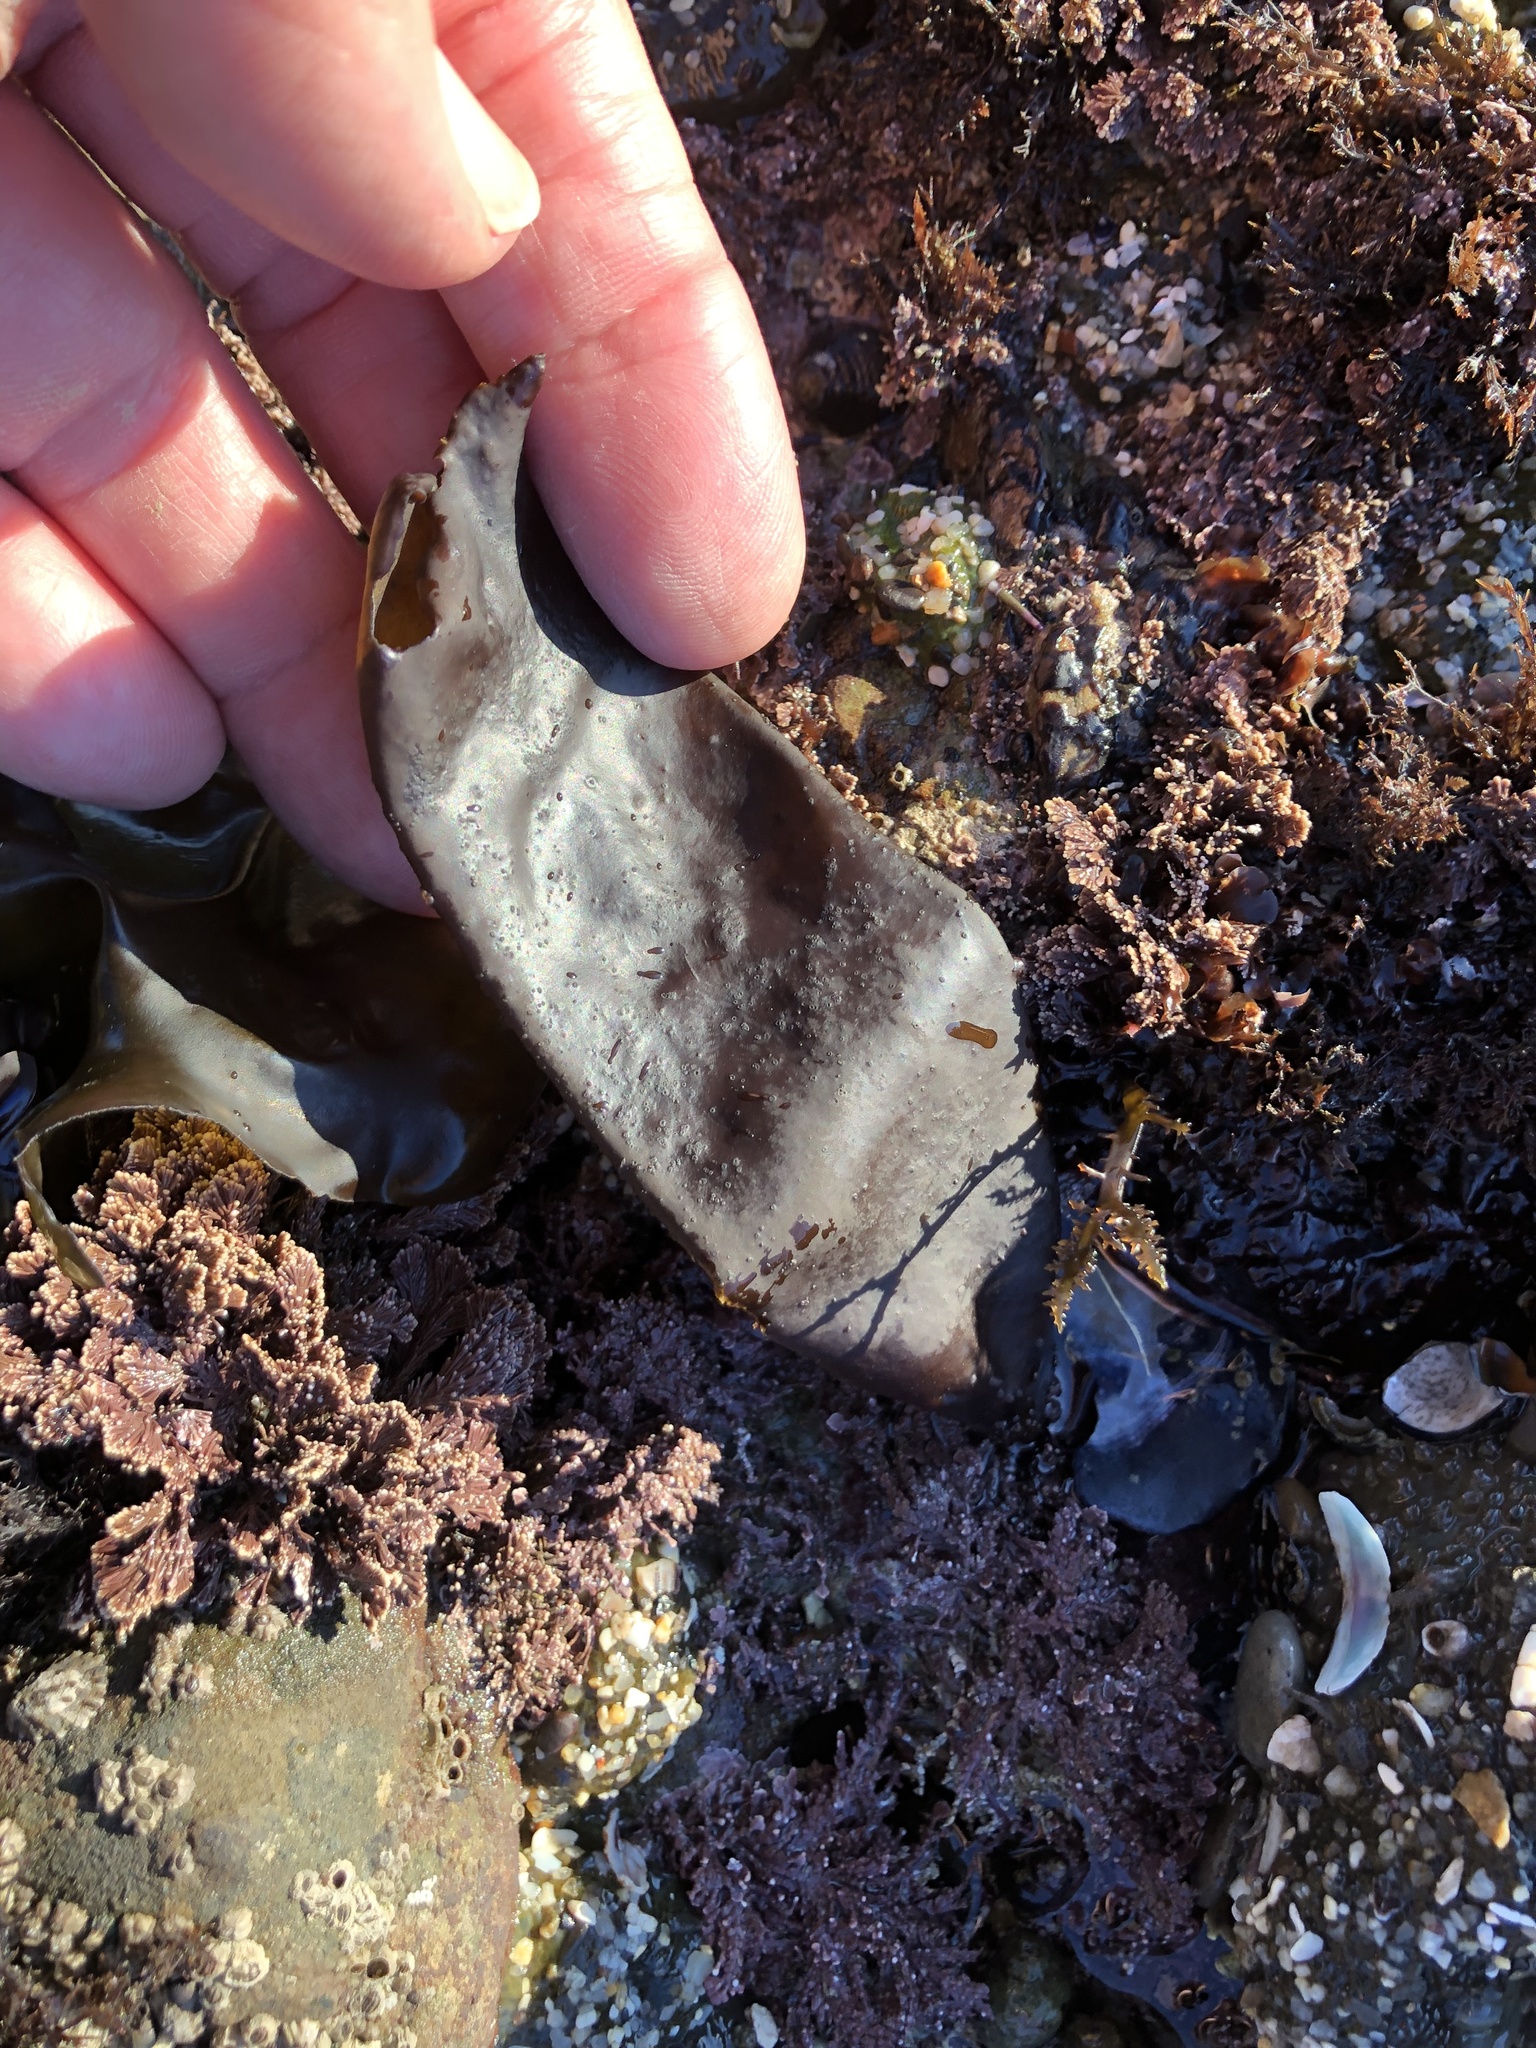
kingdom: Plantae
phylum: Rhodophyta
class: Florideophyceae
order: Palmariales
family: Palmariaceae
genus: Halosaccion
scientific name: Halosaccion glandiforme
